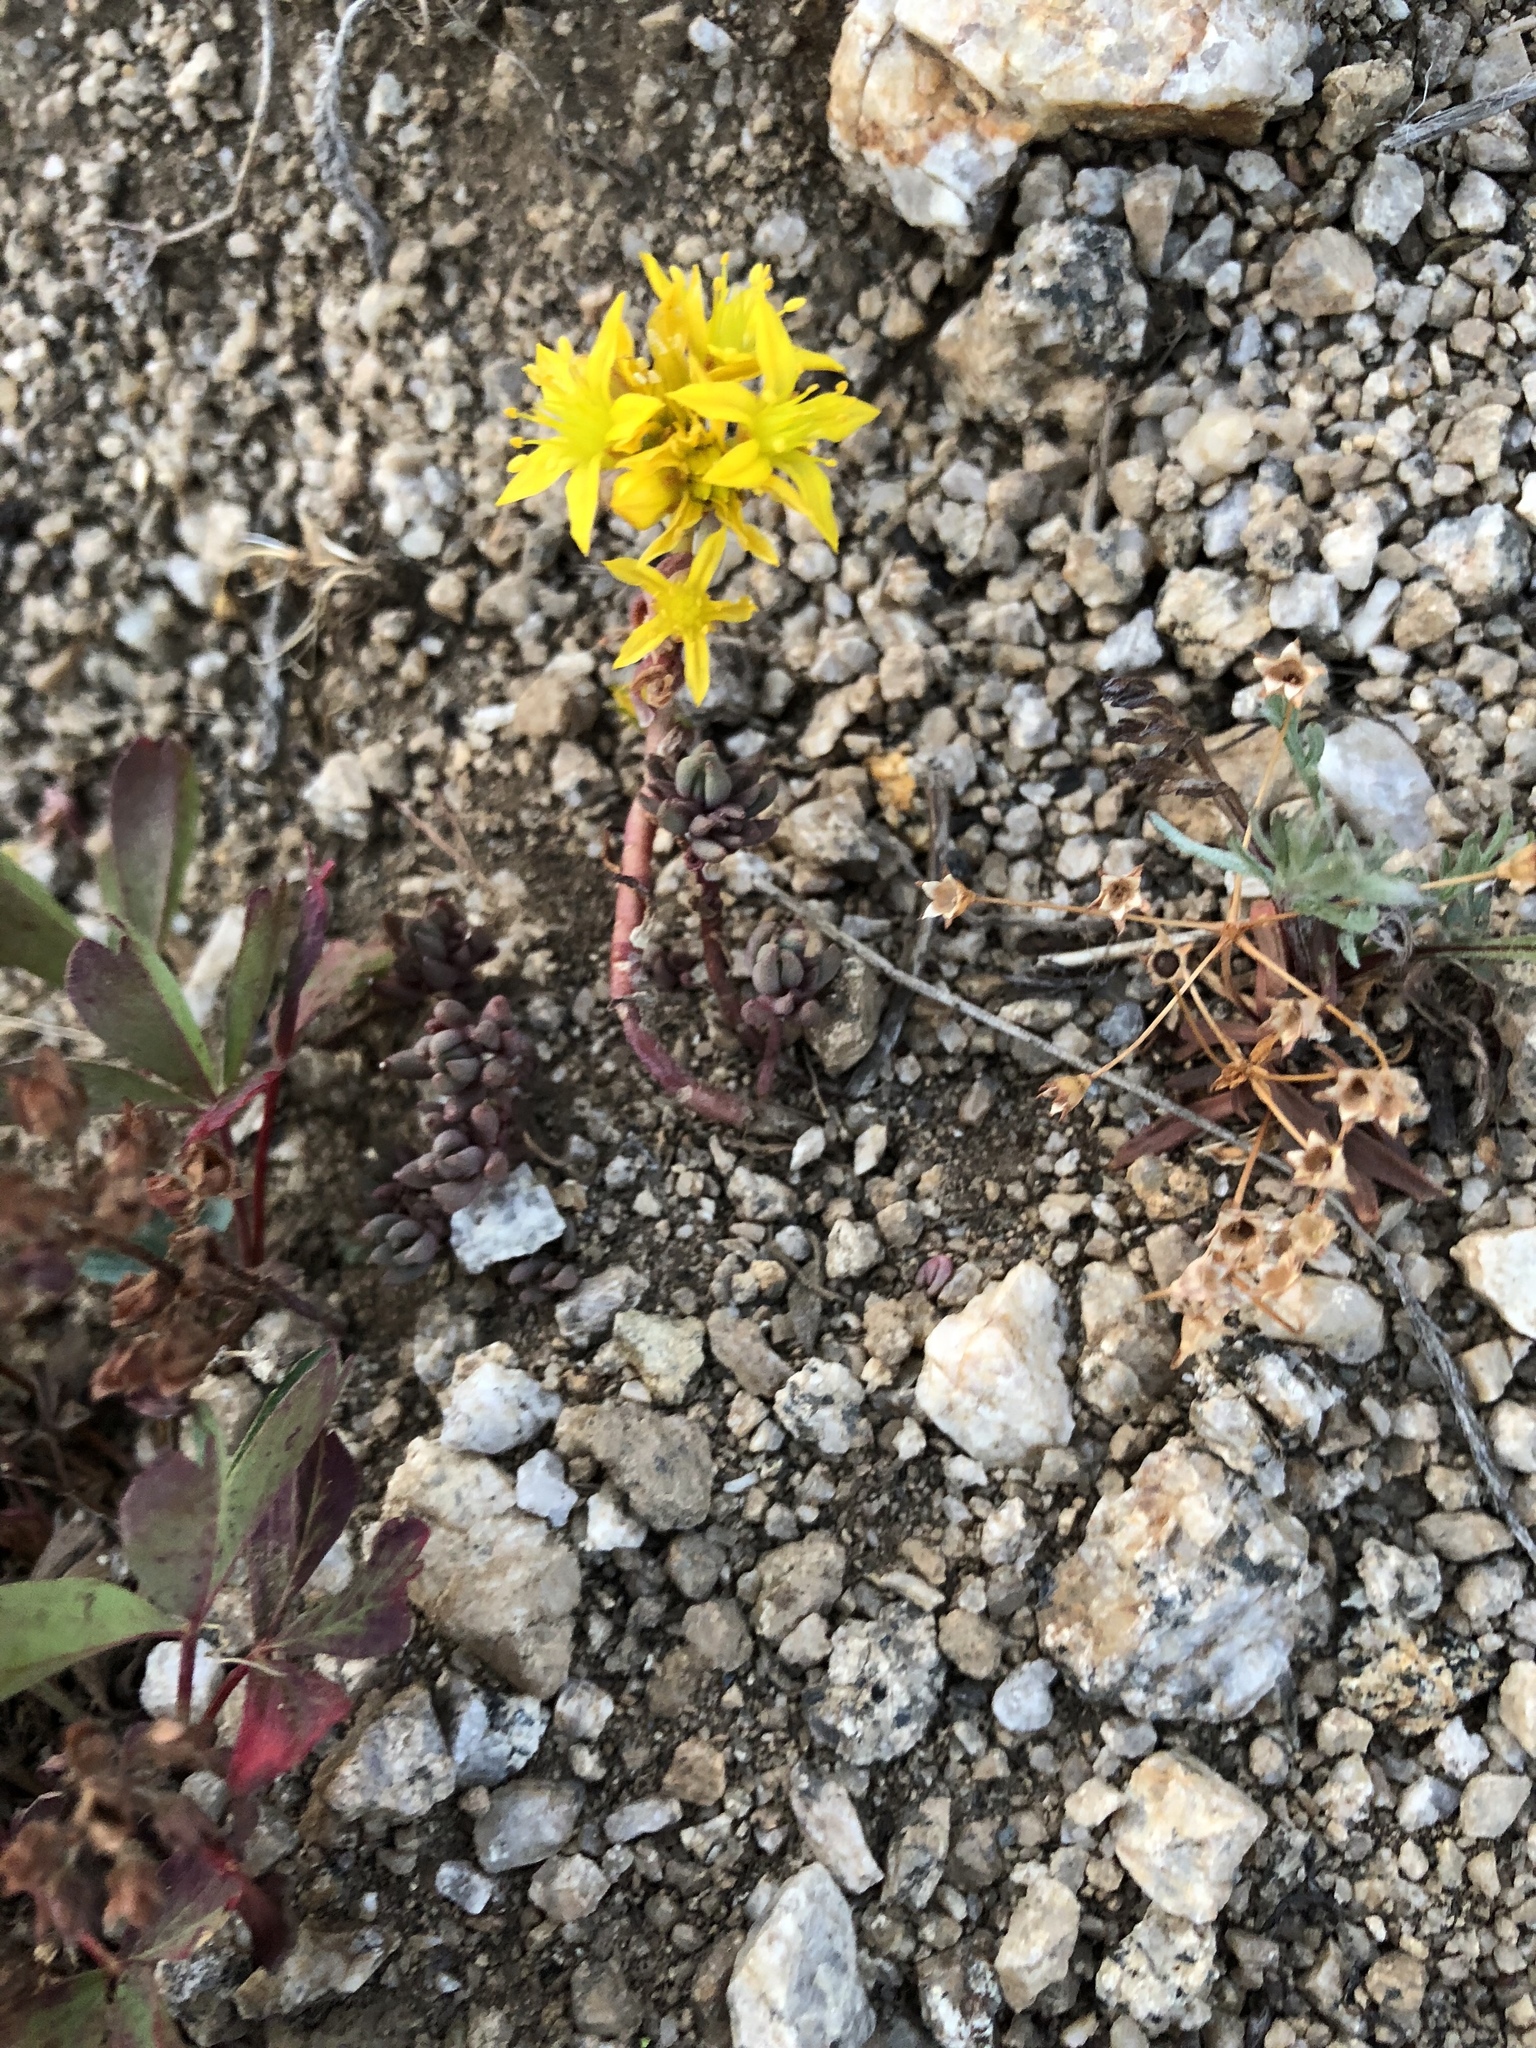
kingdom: Plantae
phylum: Tracheophyta
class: Magnoliopsida
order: Saxifragales
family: Crassulaceae
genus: Sedum
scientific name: Sedum lanceolatum
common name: Common stonecrop
